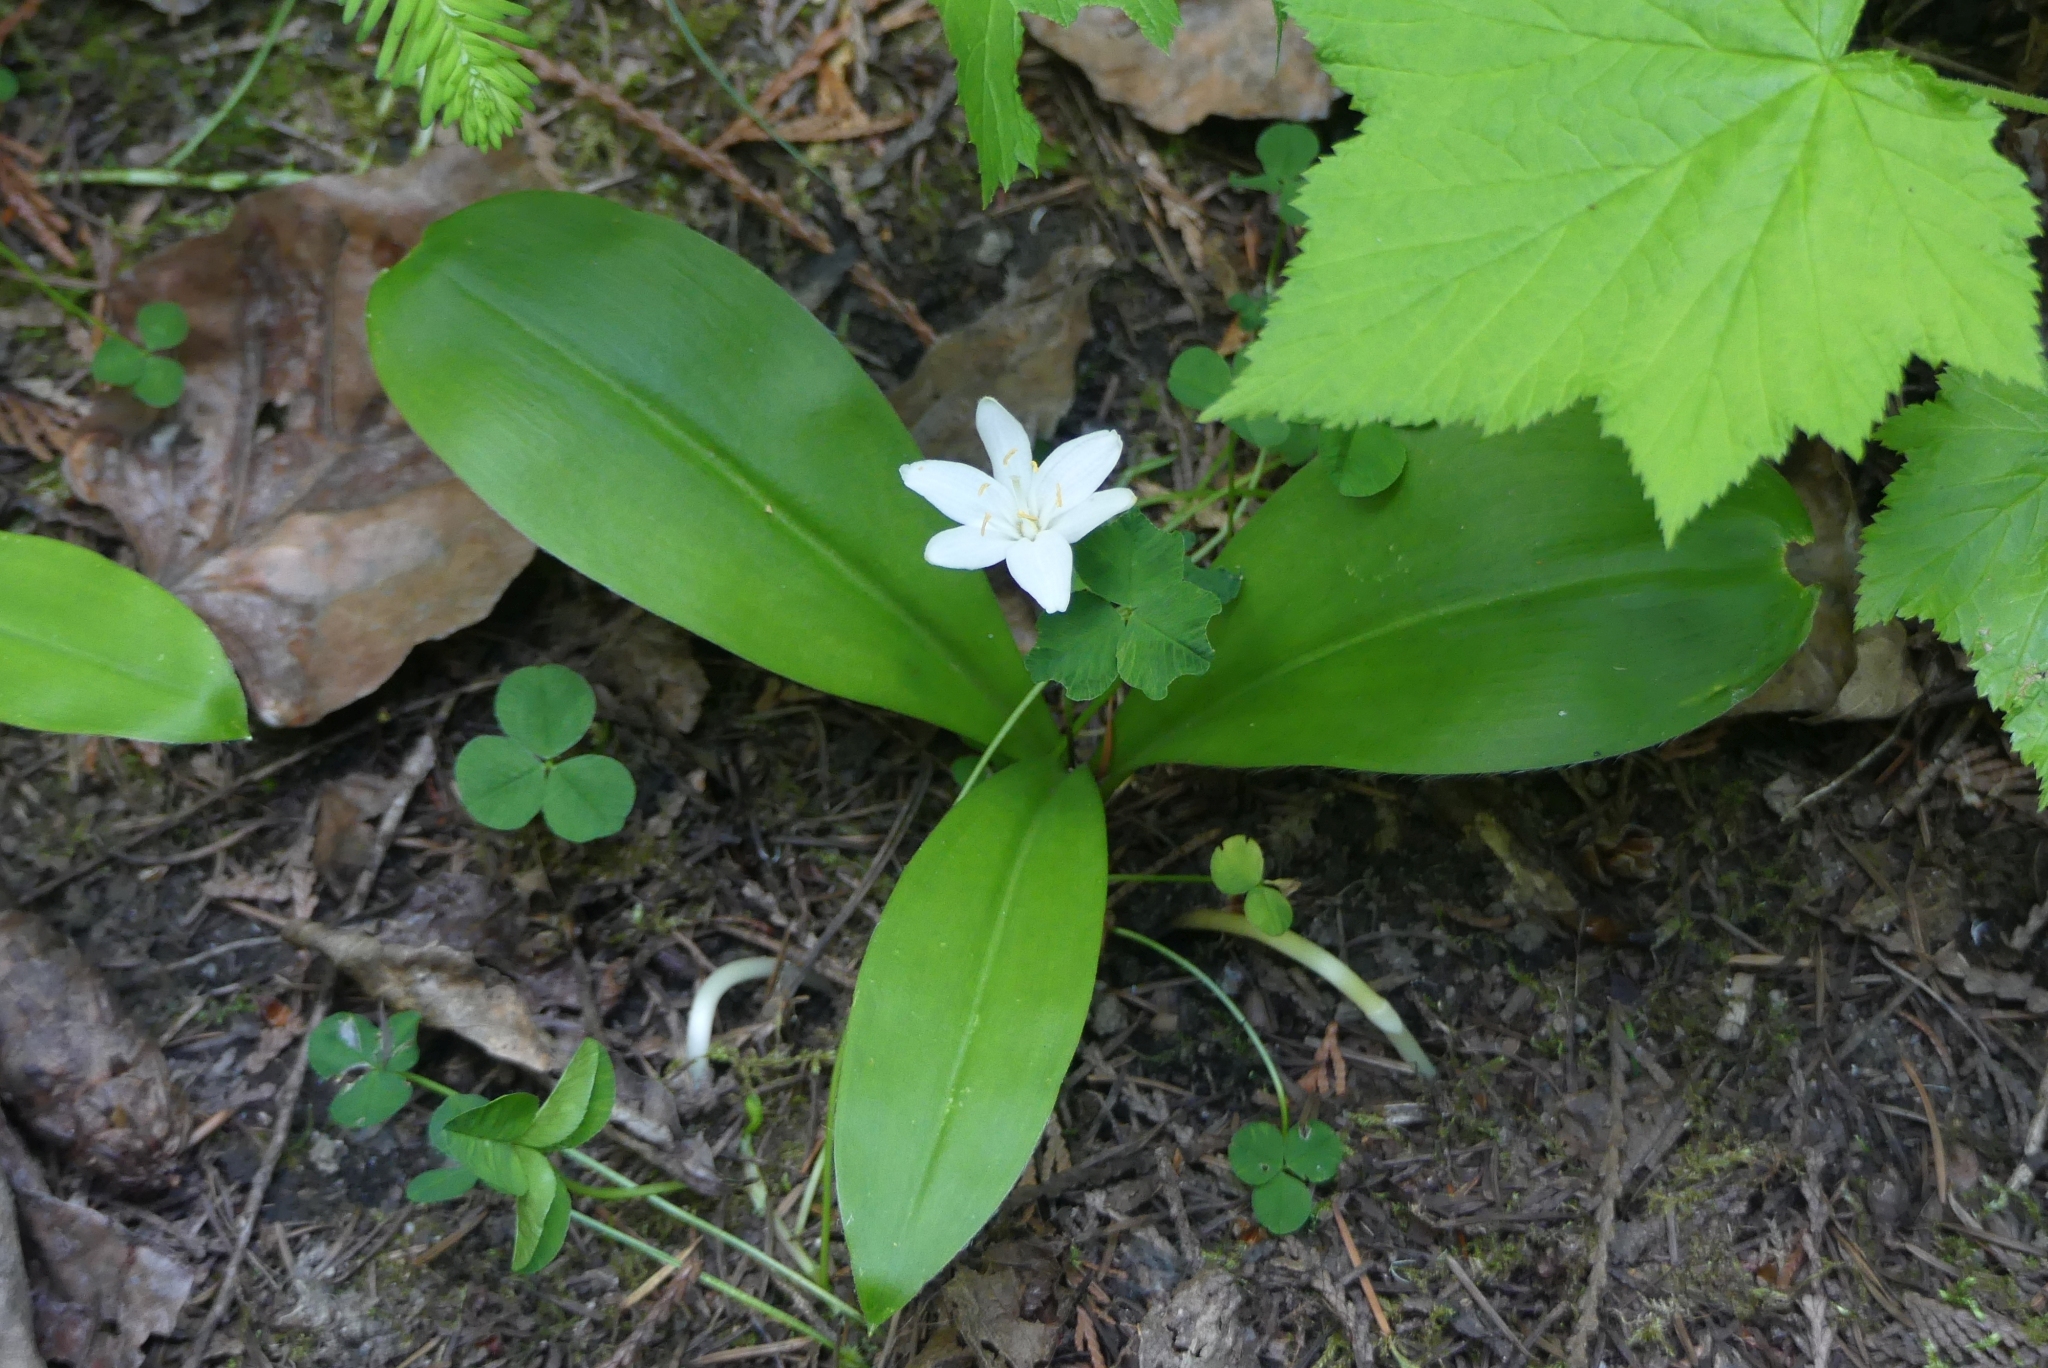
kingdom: Plantae
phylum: Tracheophyta
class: Liliopsida
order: Liliales
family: Liliaceae
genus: Clintonia
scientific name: Clintonia uniflora
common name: Queen's cup
